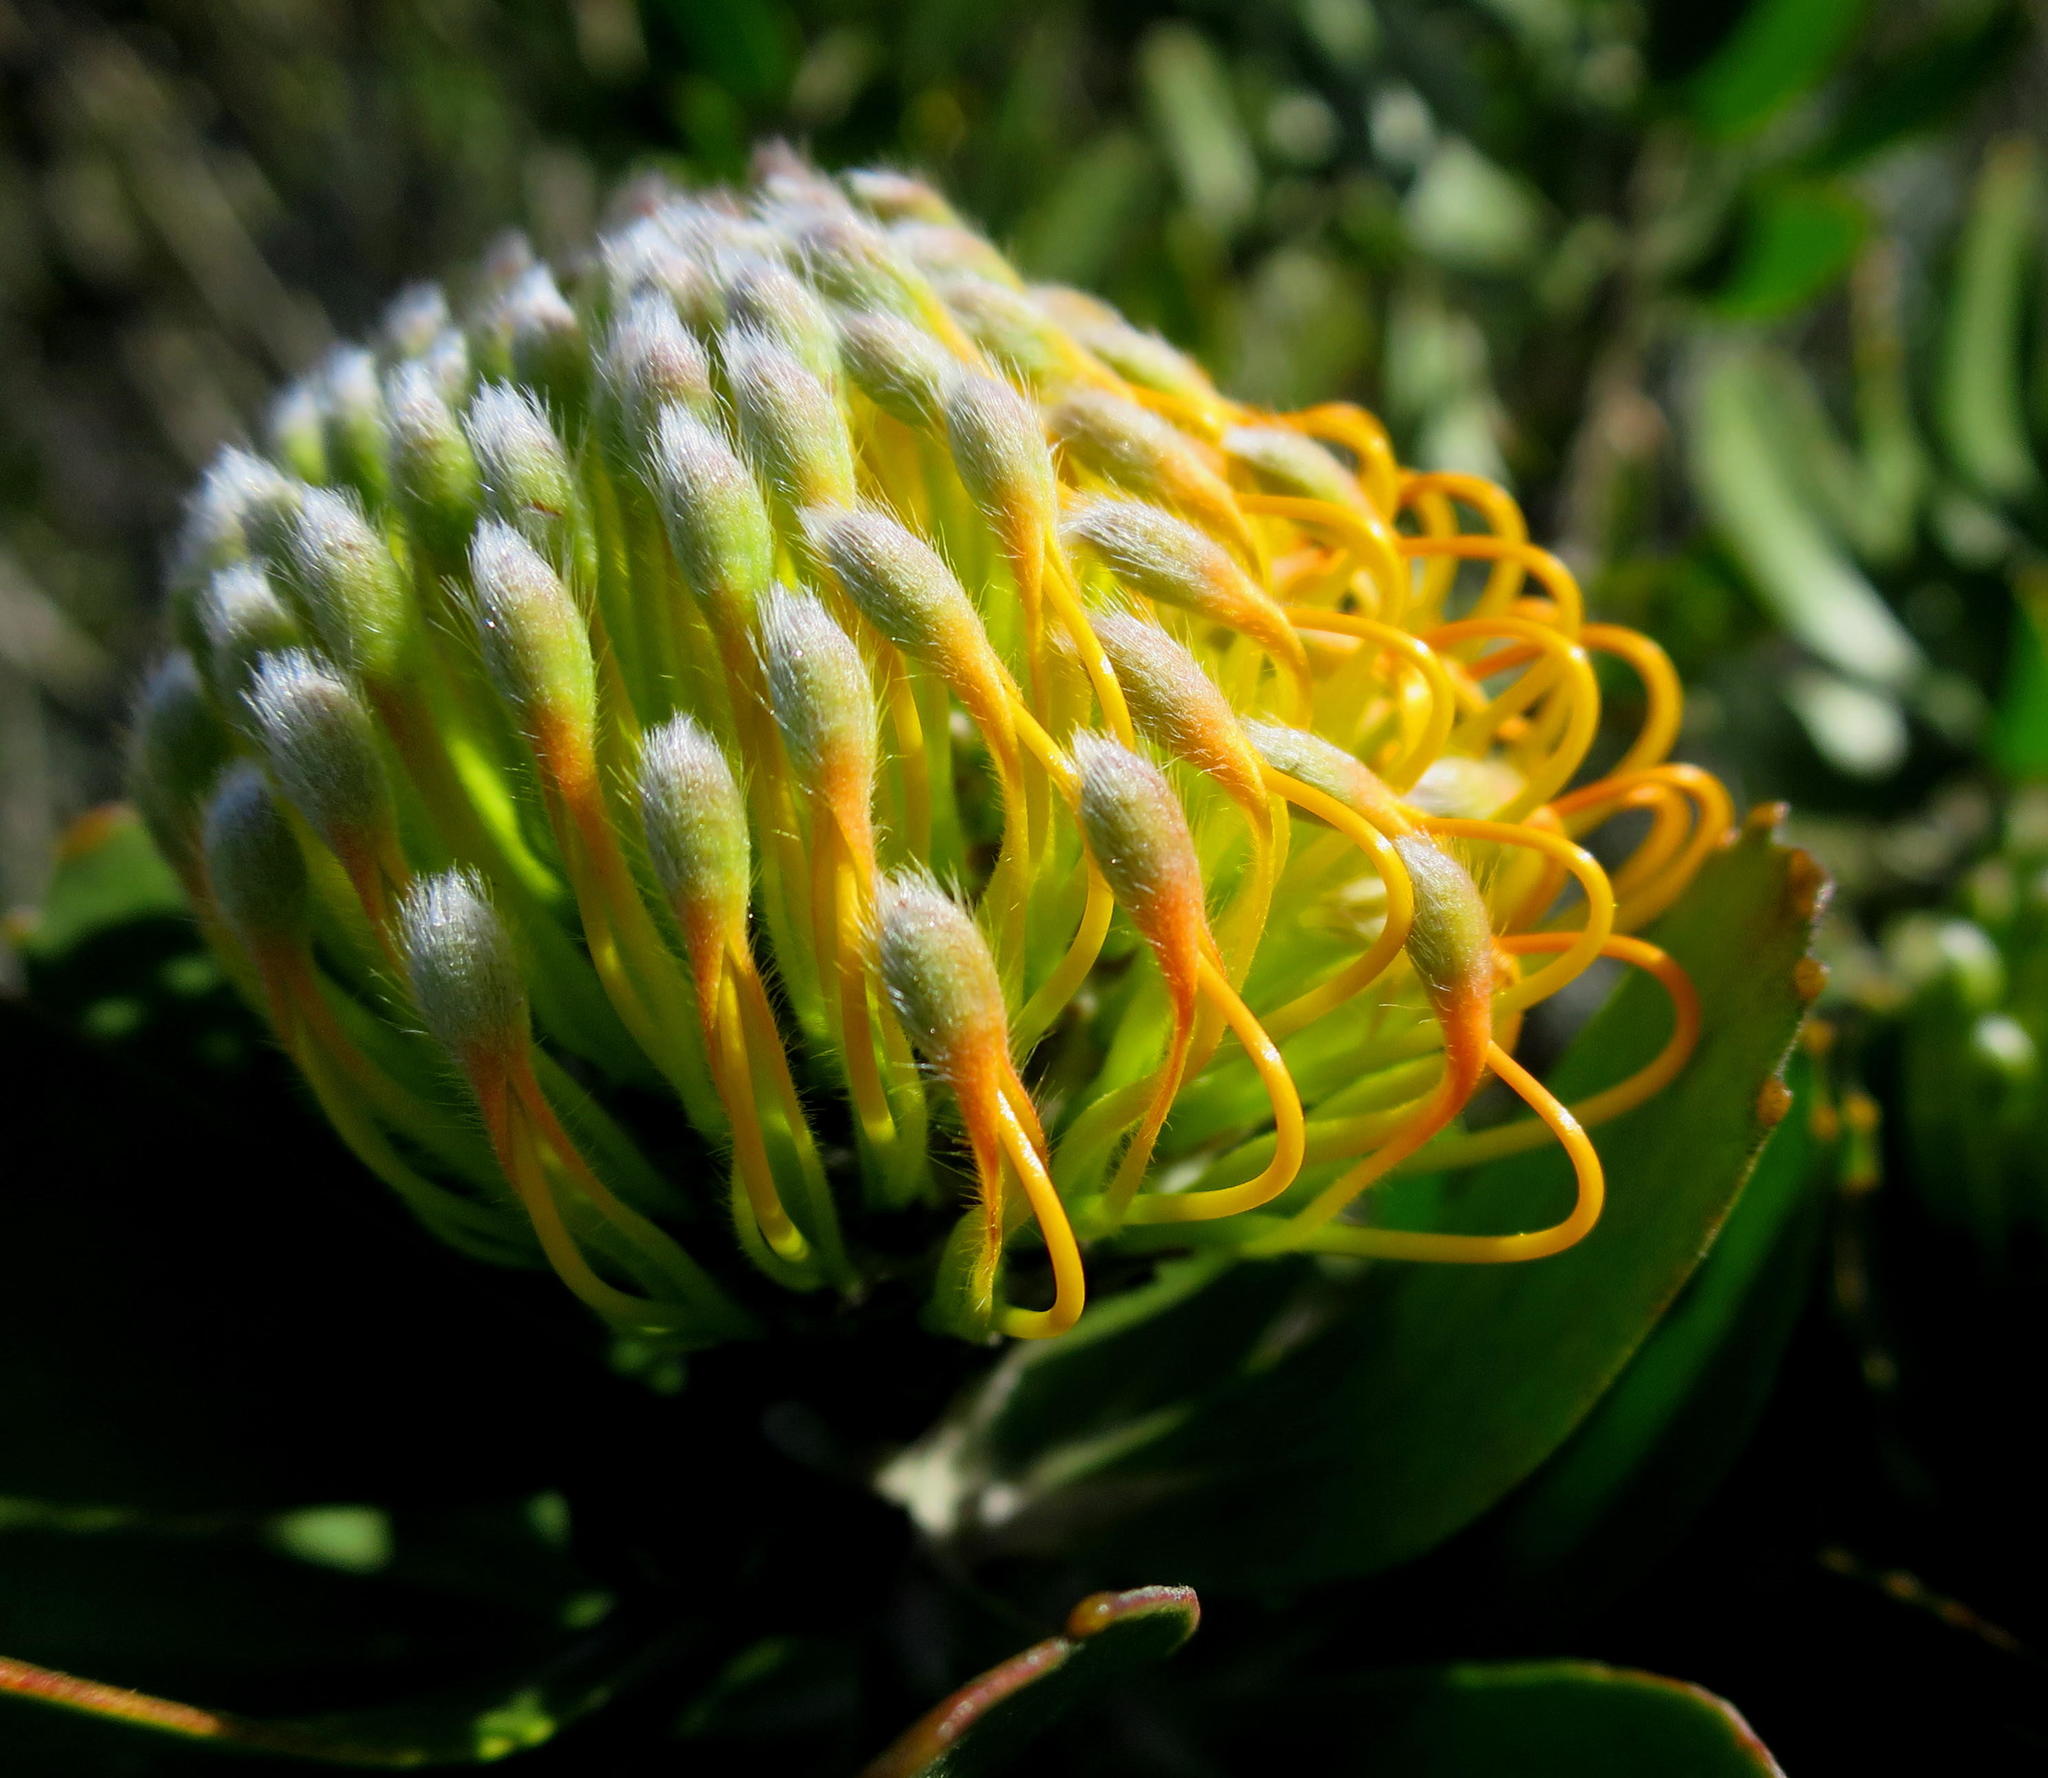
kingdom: Plantae
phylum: Tracheophyta
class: Magnoliopsida
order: Proteales
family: Proteaceae
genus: Leucospermum
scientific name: Leucospermum praecox
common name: Mossel bay pincushion
